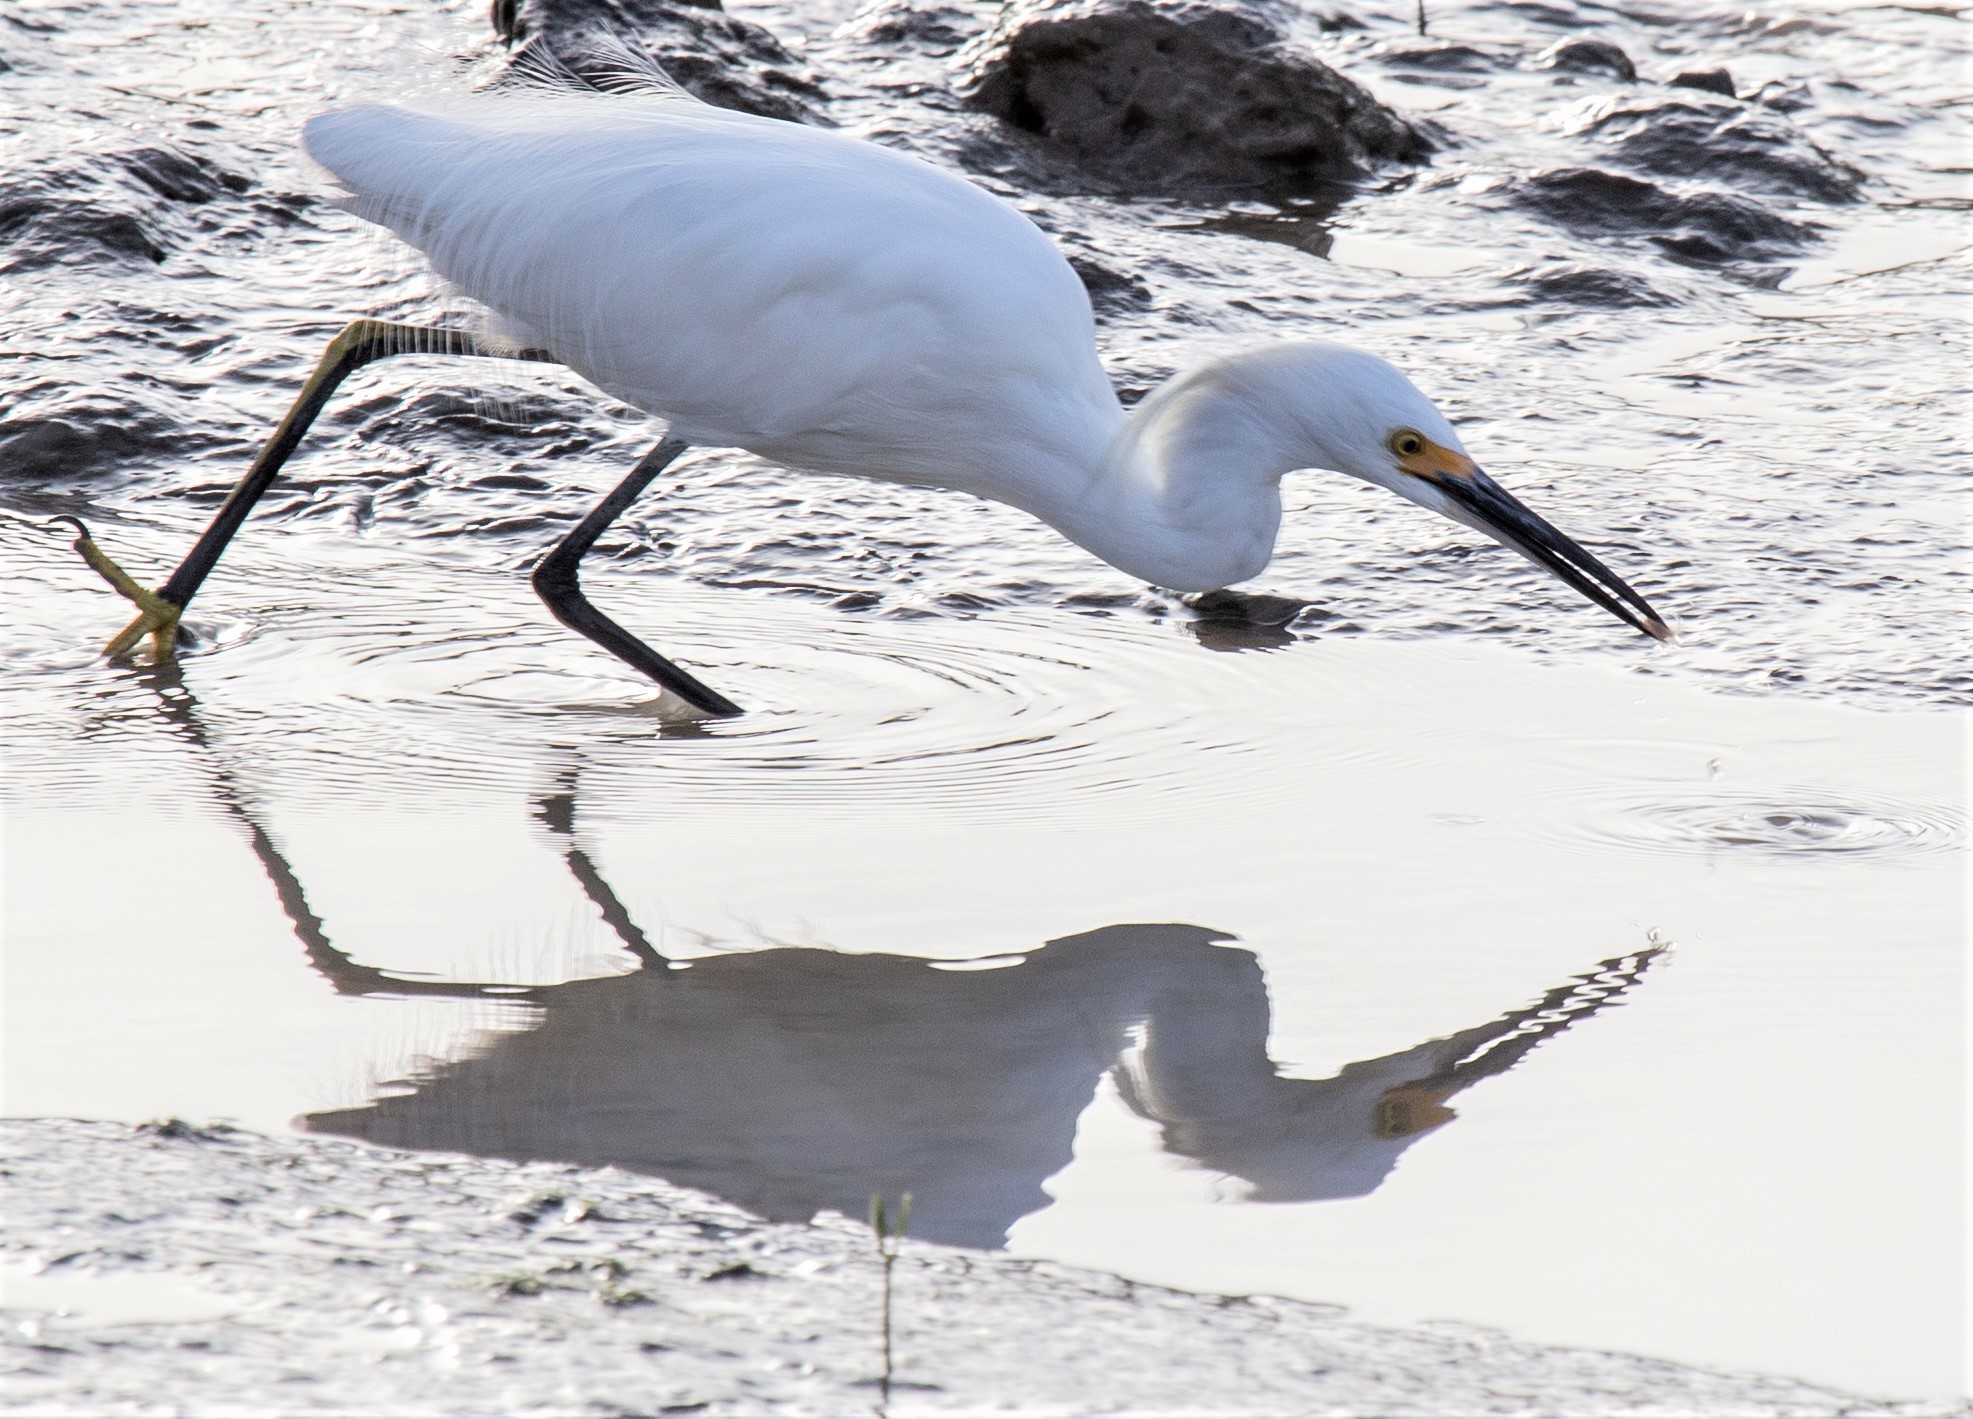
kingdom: Animalia
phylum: Chordata
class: Aves
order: Pelecaniformes
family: Ardeidae
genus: Egretta
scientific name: Egretta thula
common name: Snowy egret
